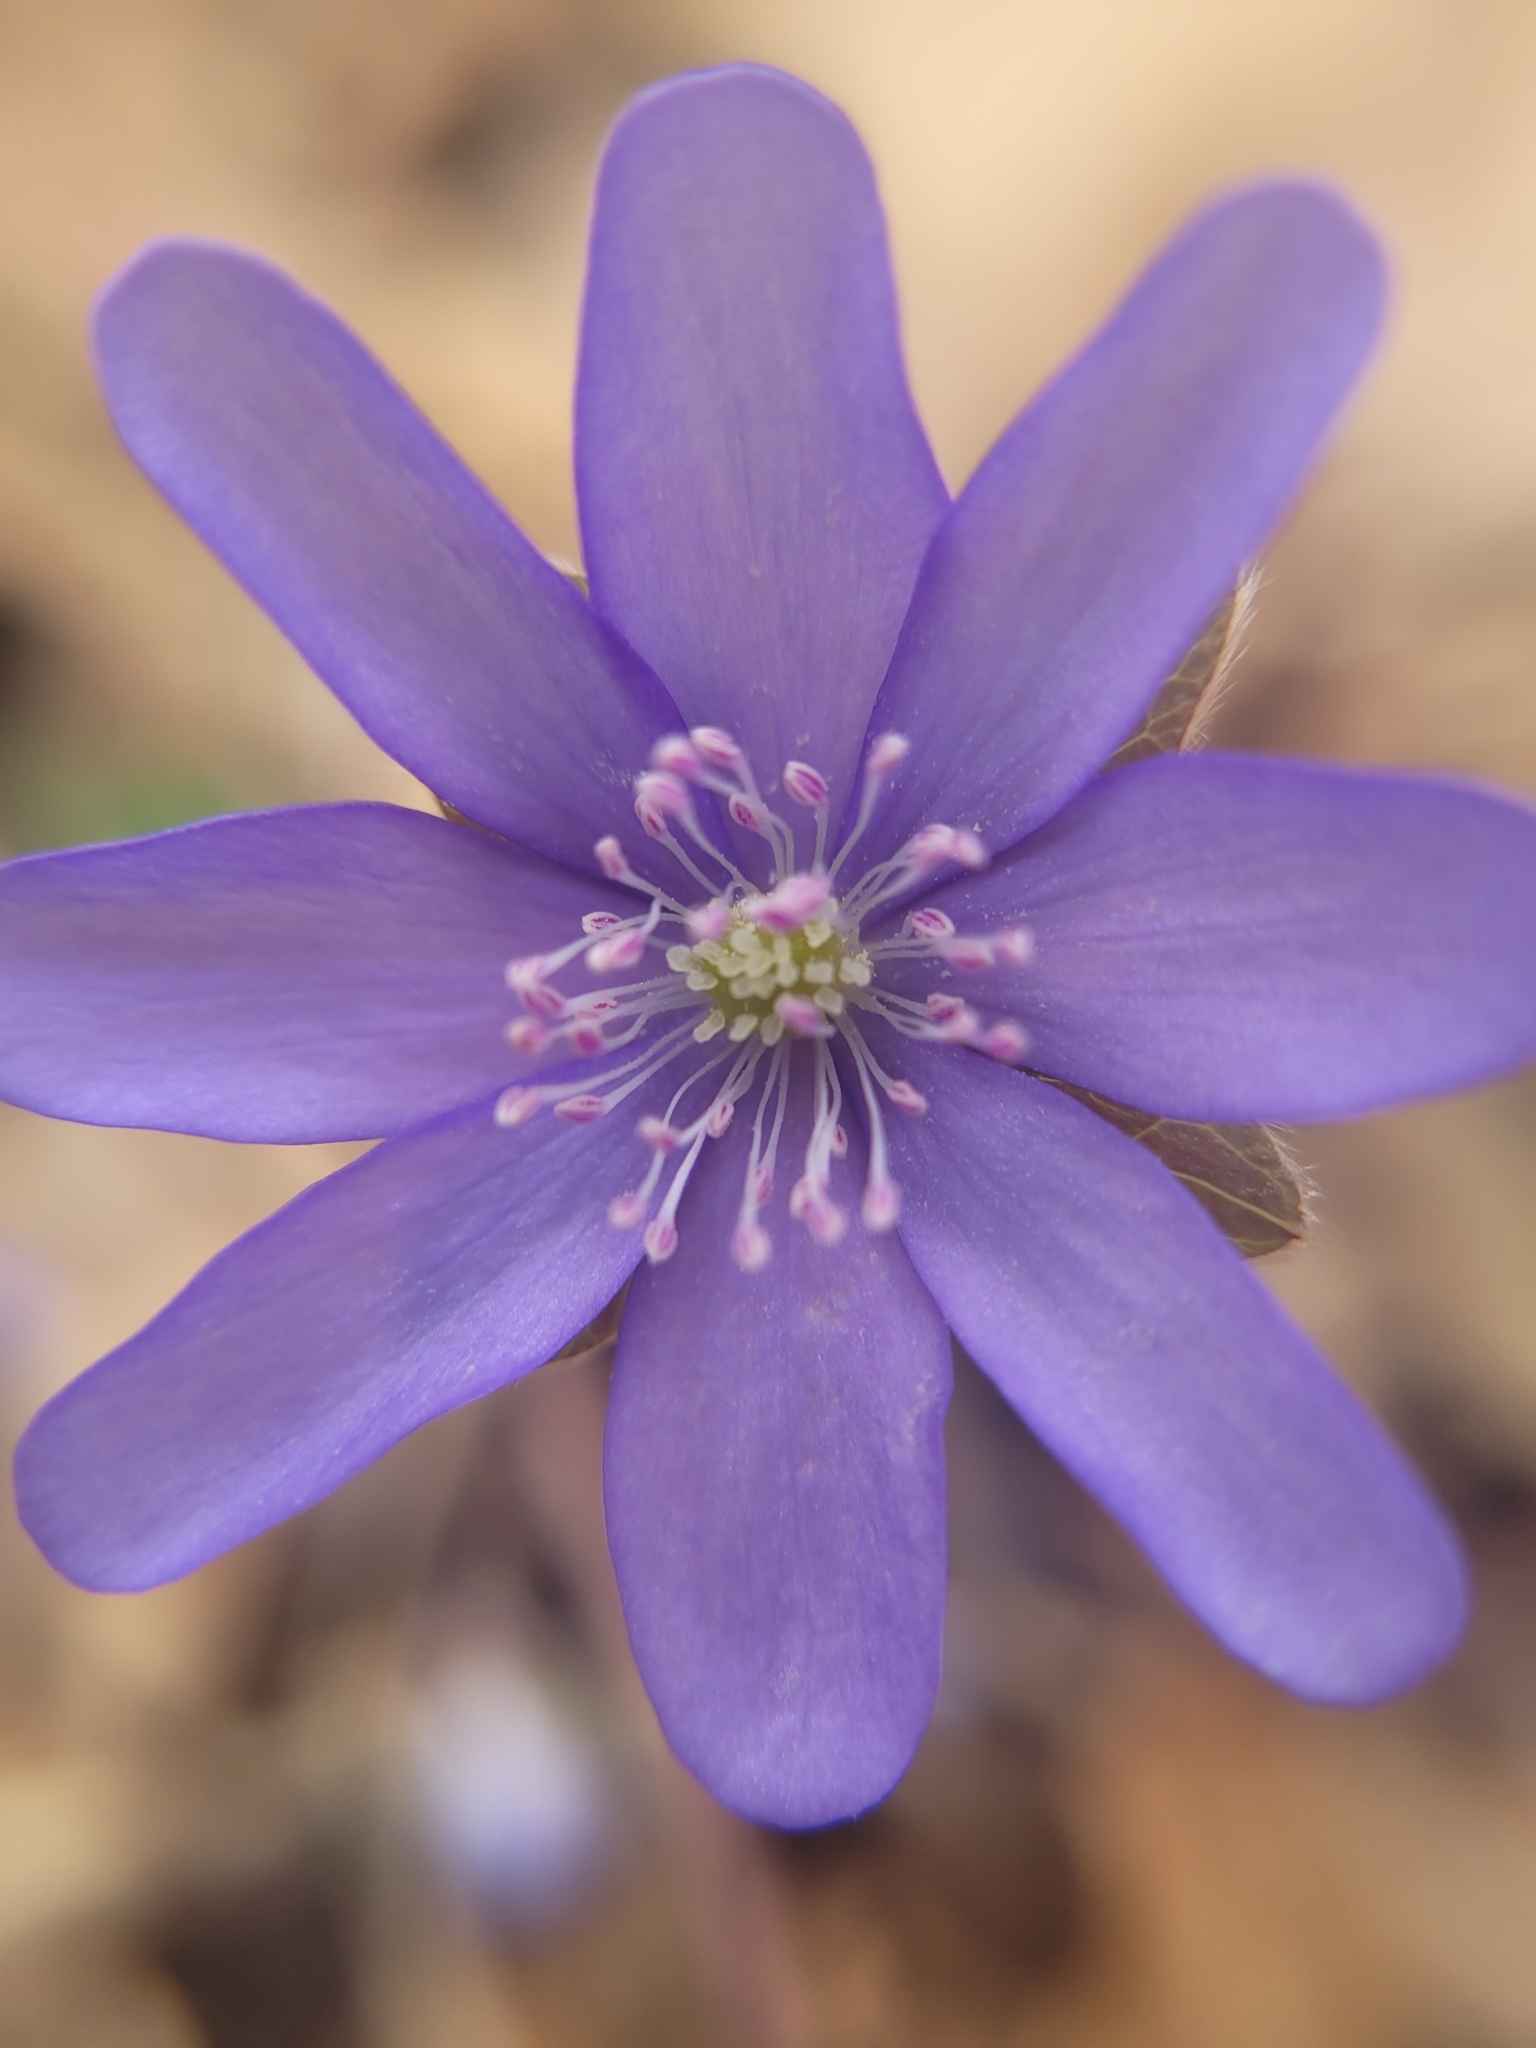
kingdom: Plantae
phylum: Tracheophyta
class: Magnoliopsida
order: Ranunculales
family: Ranunculaceae
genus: Hepatica
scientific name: Hepatica nobilis
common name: Liverleaf
